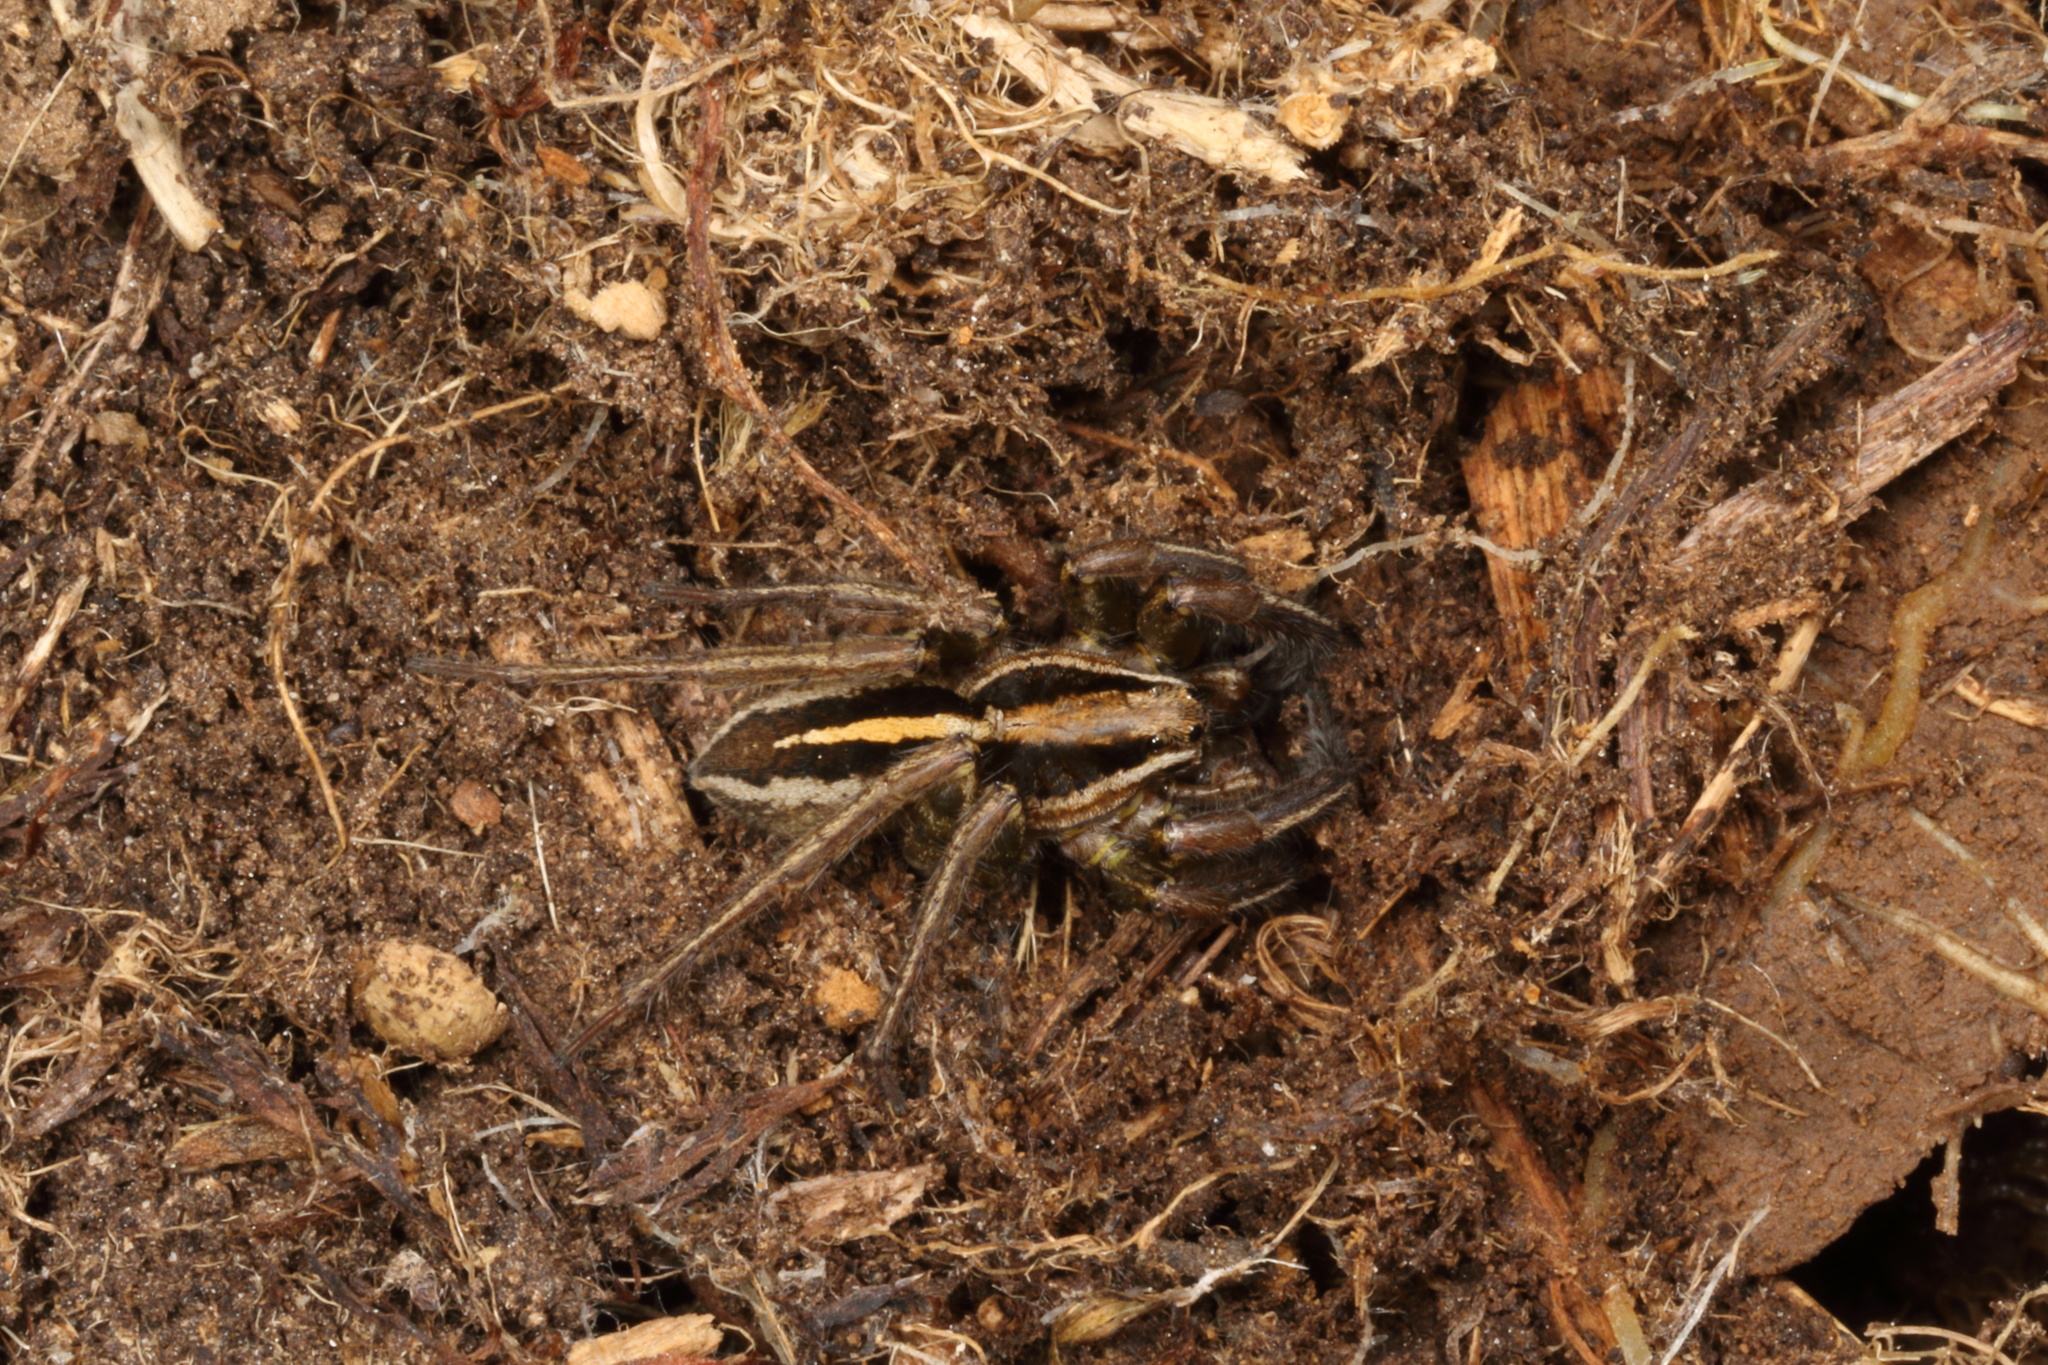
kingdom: Animalia
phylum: Arthropoda
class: Arachnida
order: Araneae
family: Lycosidae
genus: Anoteropsis
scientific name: Anoteropsis hilaris
